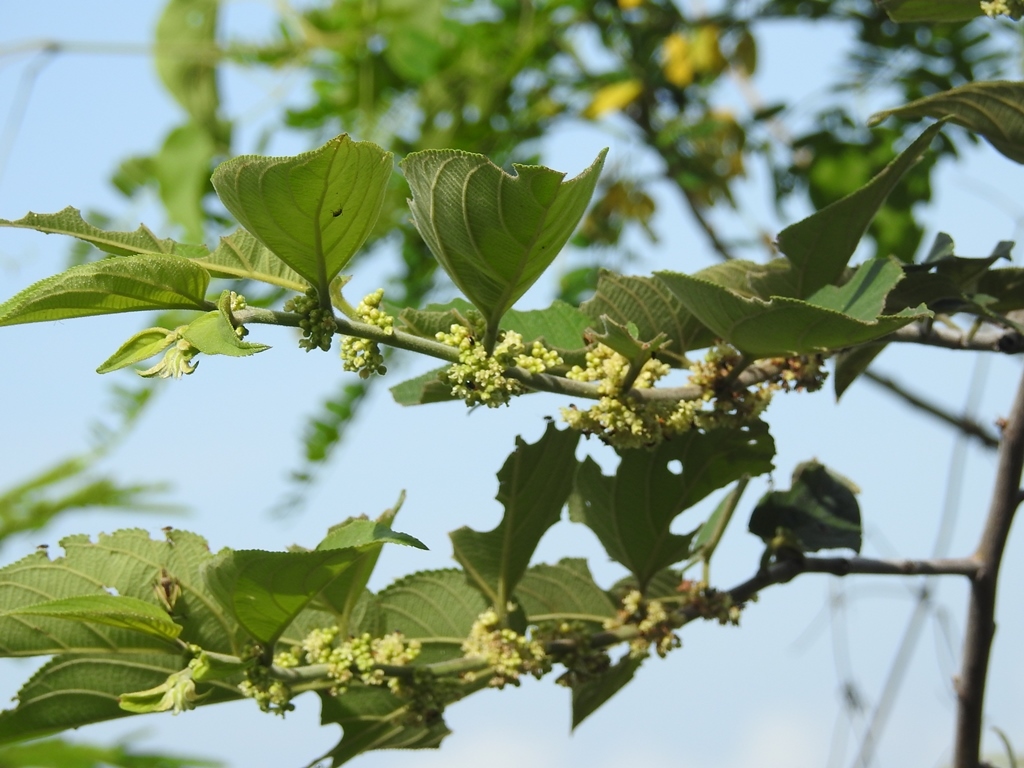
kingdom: Plantae
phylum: Tracheophyta
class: Magnoliopsida
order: Rosales
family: Cannabaceae
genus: Trema
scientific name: Trema micranthum
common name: Jamaican nettletree
